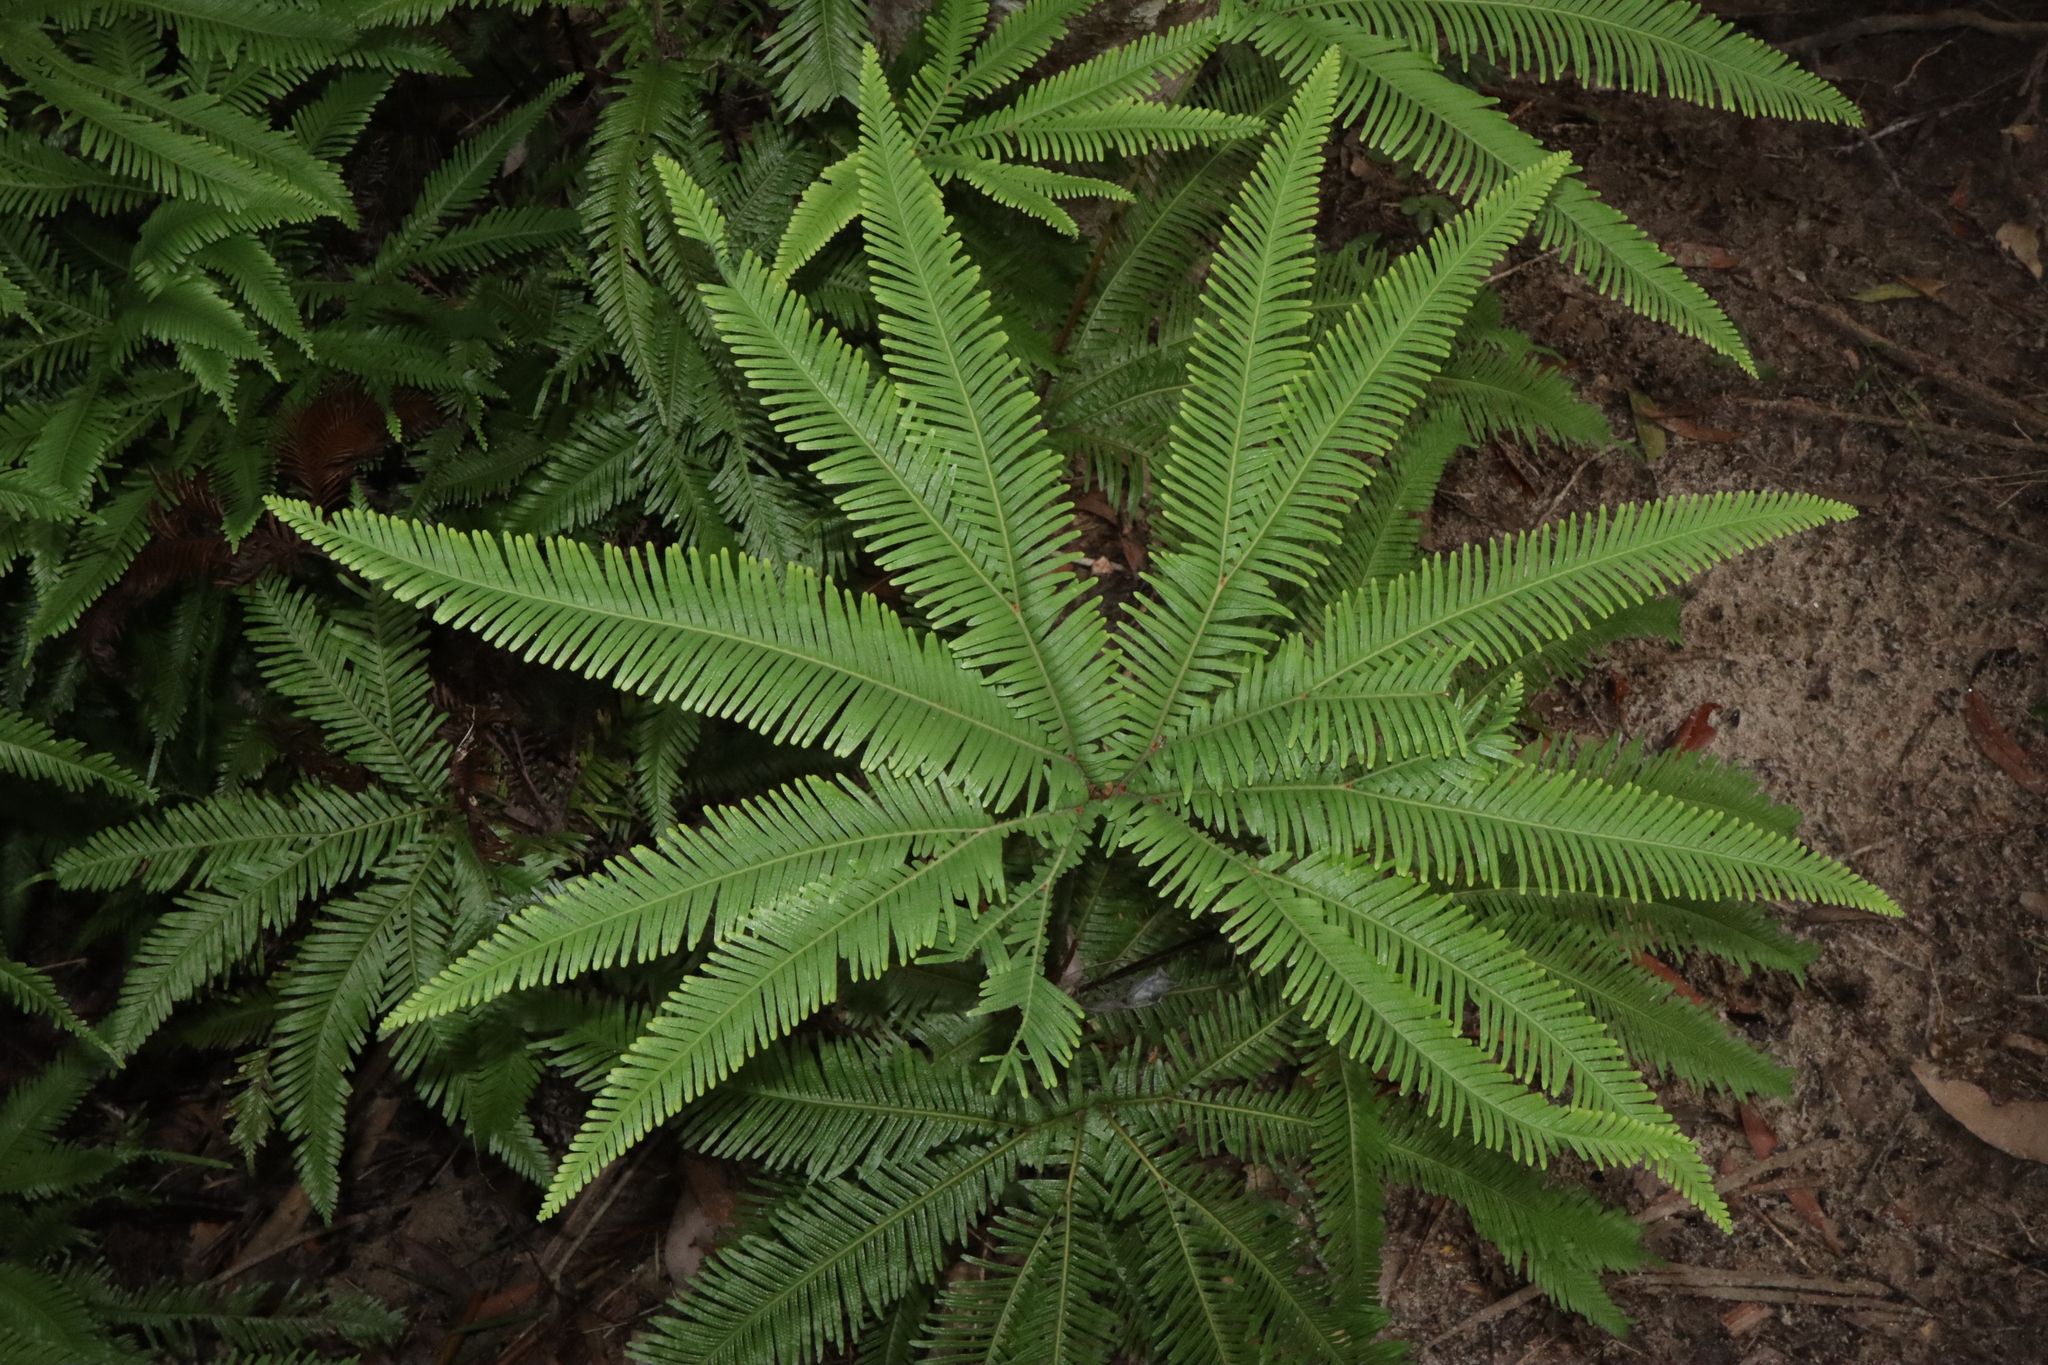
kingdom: Plantae
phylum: Tracheophyta
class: Polypodiopsida
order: Gleicheniales
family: Gleicheniaceae
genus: Sticherus
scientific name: Sticherus flabellatus
